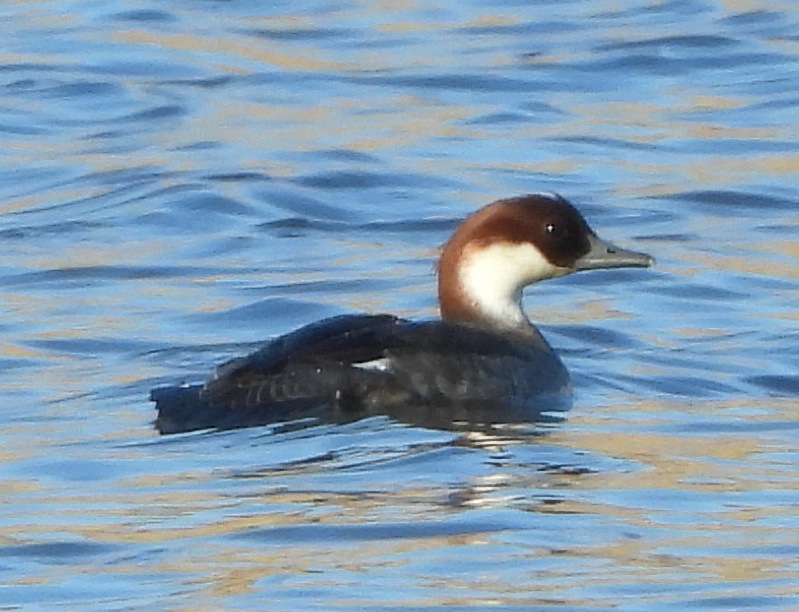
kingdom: Animalia
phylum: Chordata
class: Aves
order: Anseriformes
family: Anatidae
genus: Mergellus
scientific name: Mergellus albellus
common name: Smew
